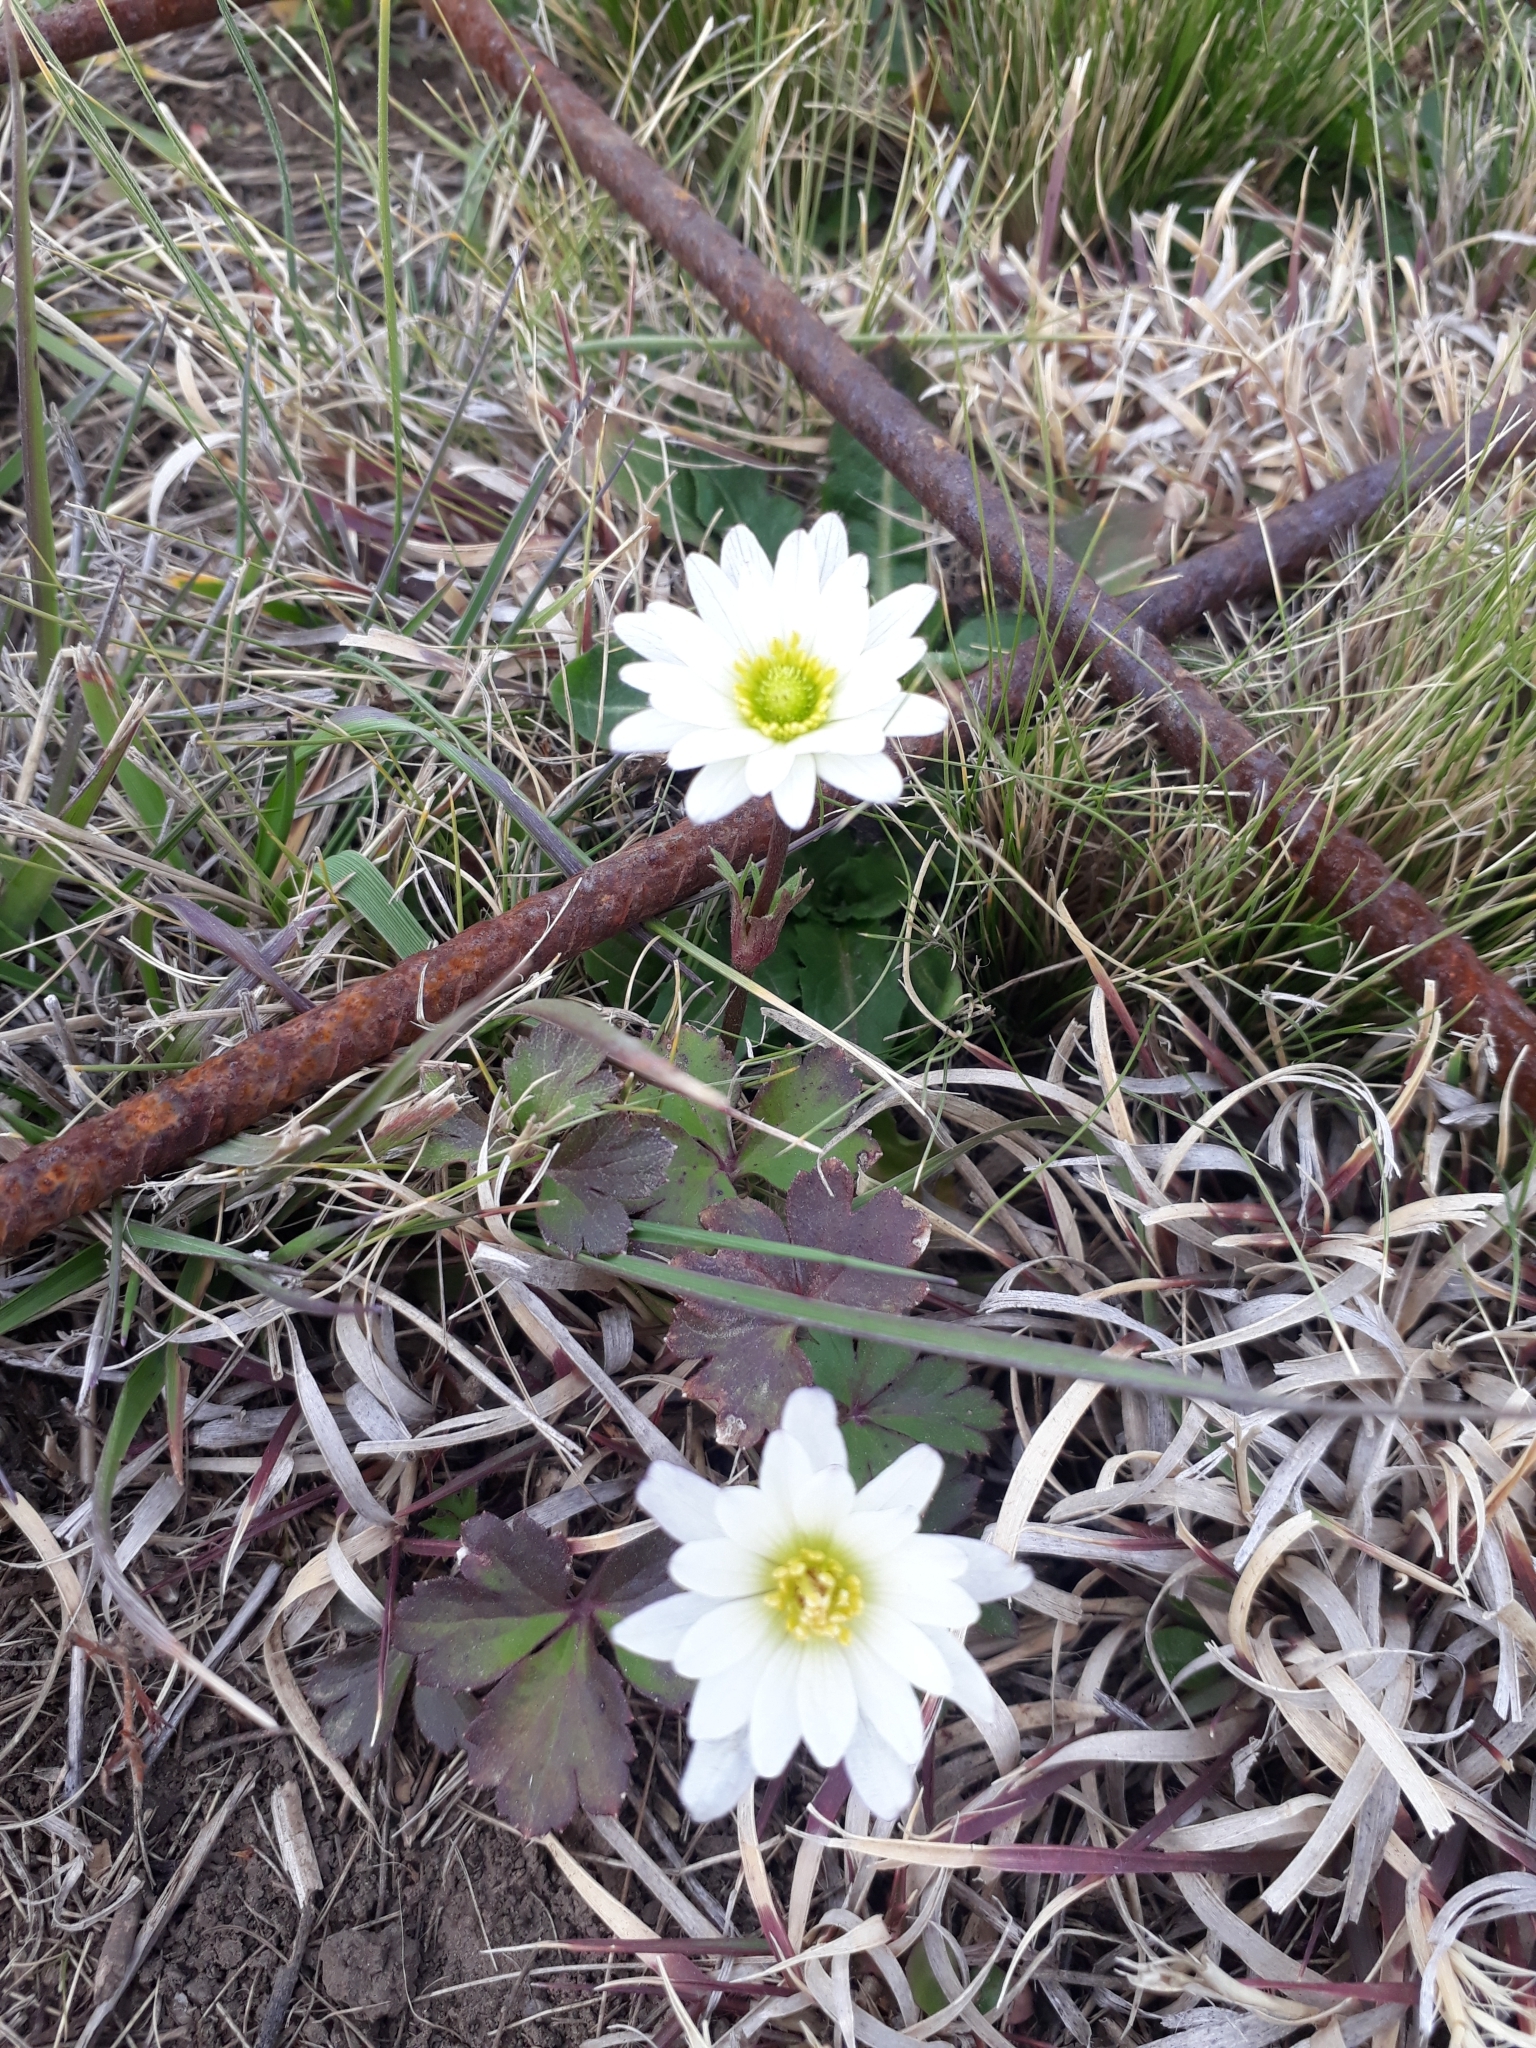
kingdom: Plantae
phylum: Tracheophyta
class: Magnoliopsida
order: Ranunculales
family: Ranunculaceae
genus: Anemone
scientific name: Anemone decapetala
